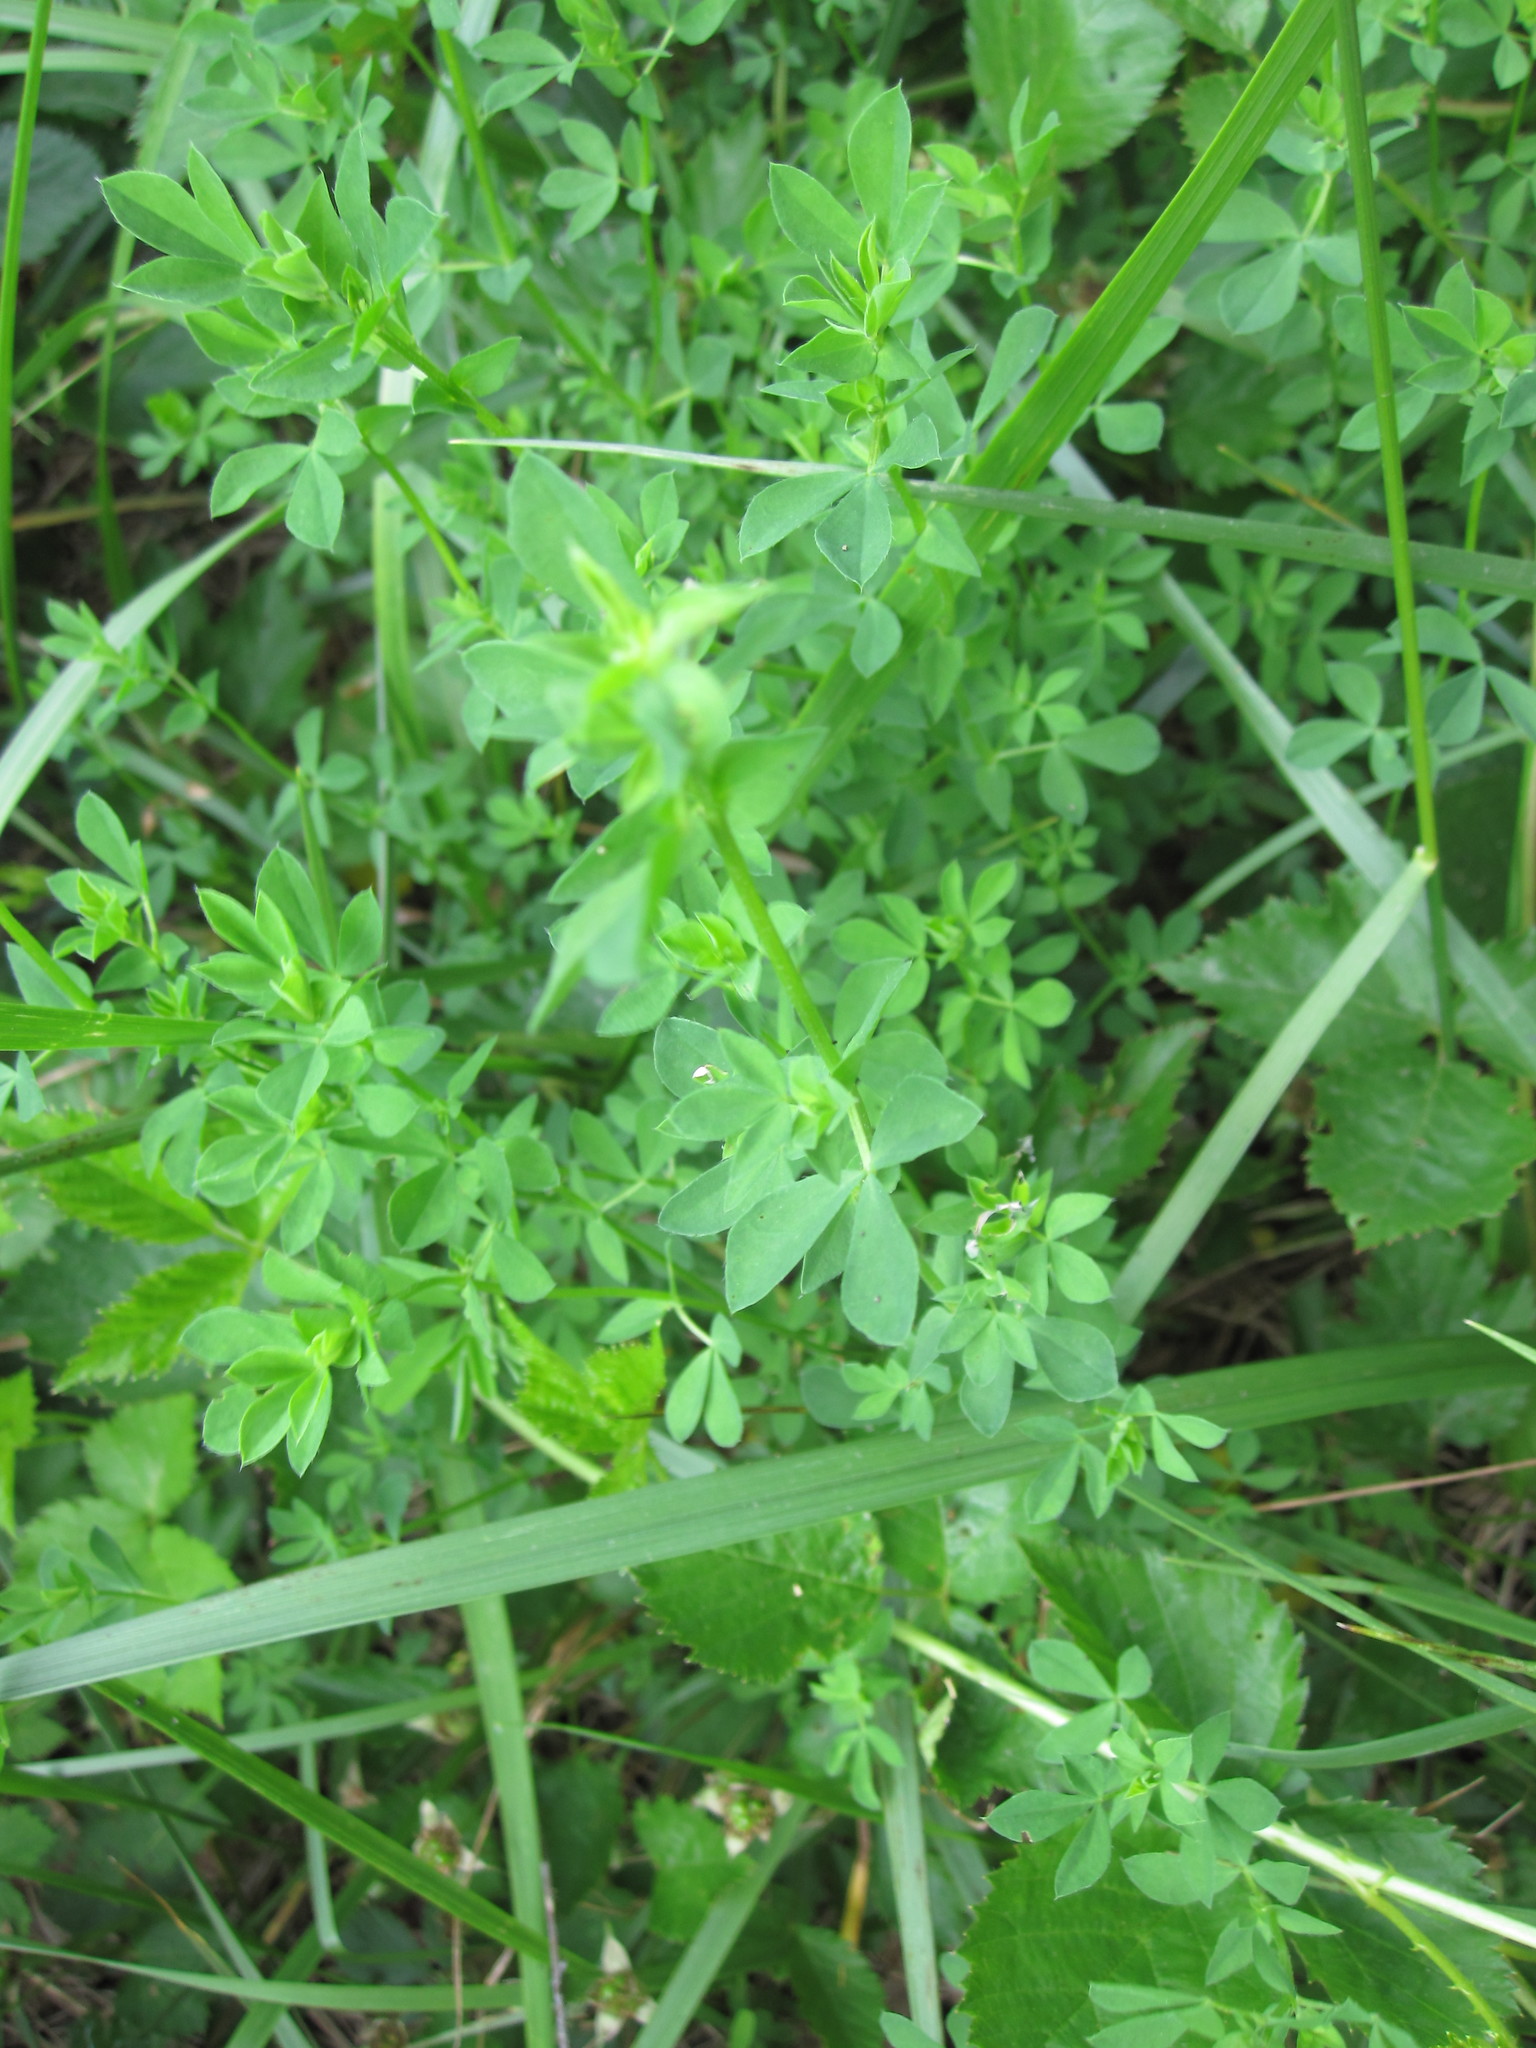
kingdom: Plantae
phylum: Tracheophyta
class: Magnoliopsida
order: Fabales
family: Fabaceae
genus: Lotus
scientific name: Lotus corniculatus
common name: Common bird's-foot-trefoil
